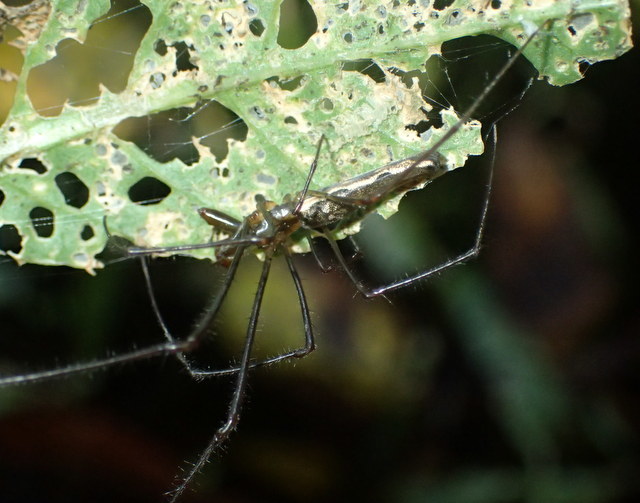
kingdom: Animalia
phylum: Arthropoda
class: Arachnida
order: Araneae
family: Tetragnathidae
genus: Tetragnatha
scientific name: Tetragnatha
